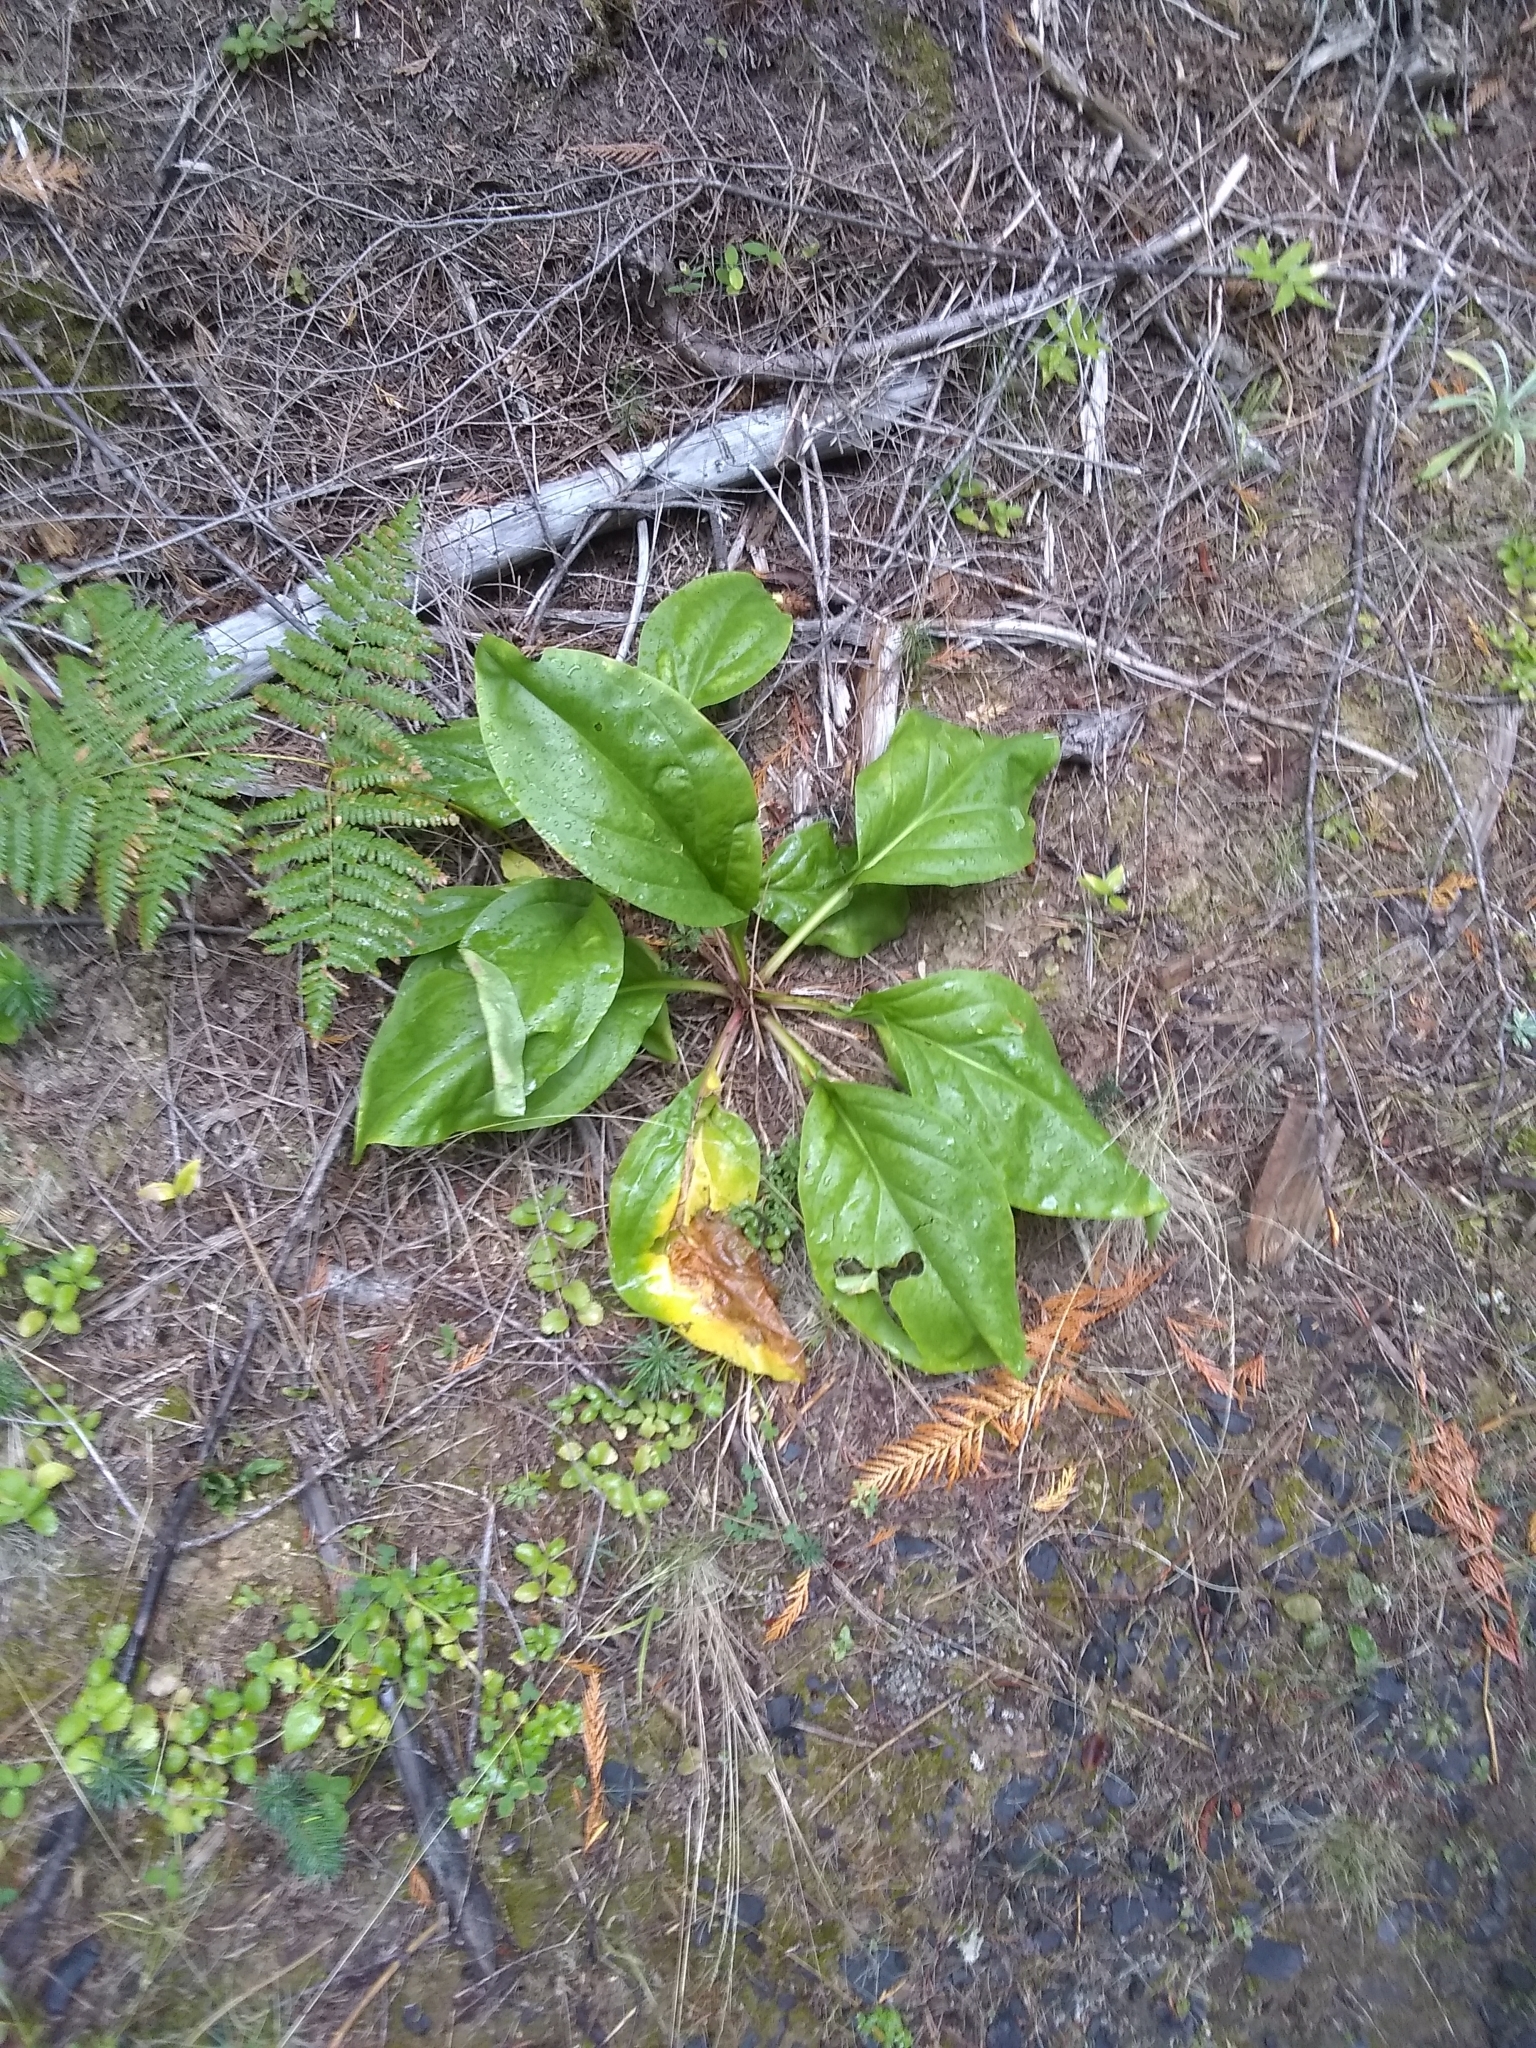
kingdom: Plantae
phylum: Tracheophyta
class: Magnoliopsida
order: Gentianales
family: Gentianaceae
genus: Frasera
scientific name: Frasera fastigiata
